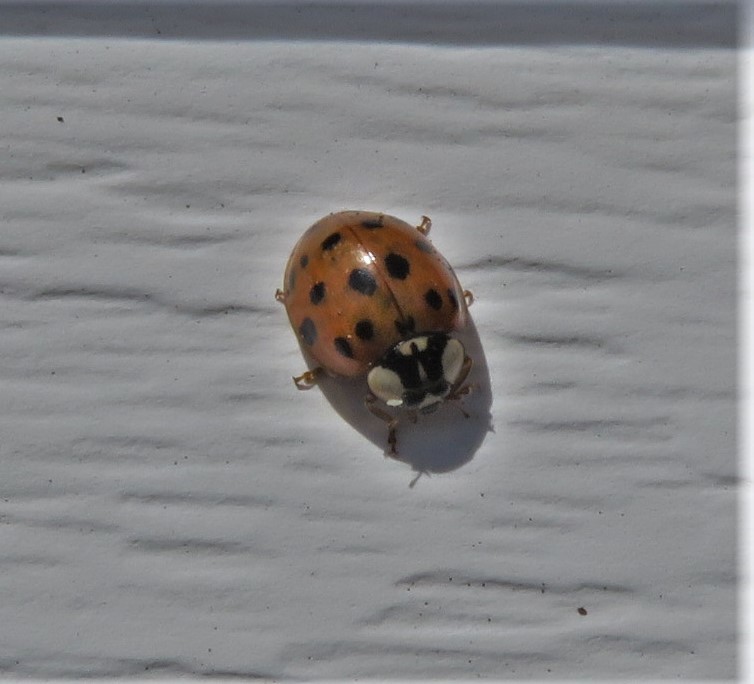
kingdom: Animalia
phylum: Arthropoda
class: Insecta
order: Coleoptera
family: Coccinellidae
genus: Harmonia
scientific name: Harmonia axyridis
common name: Harlequin ladybird
